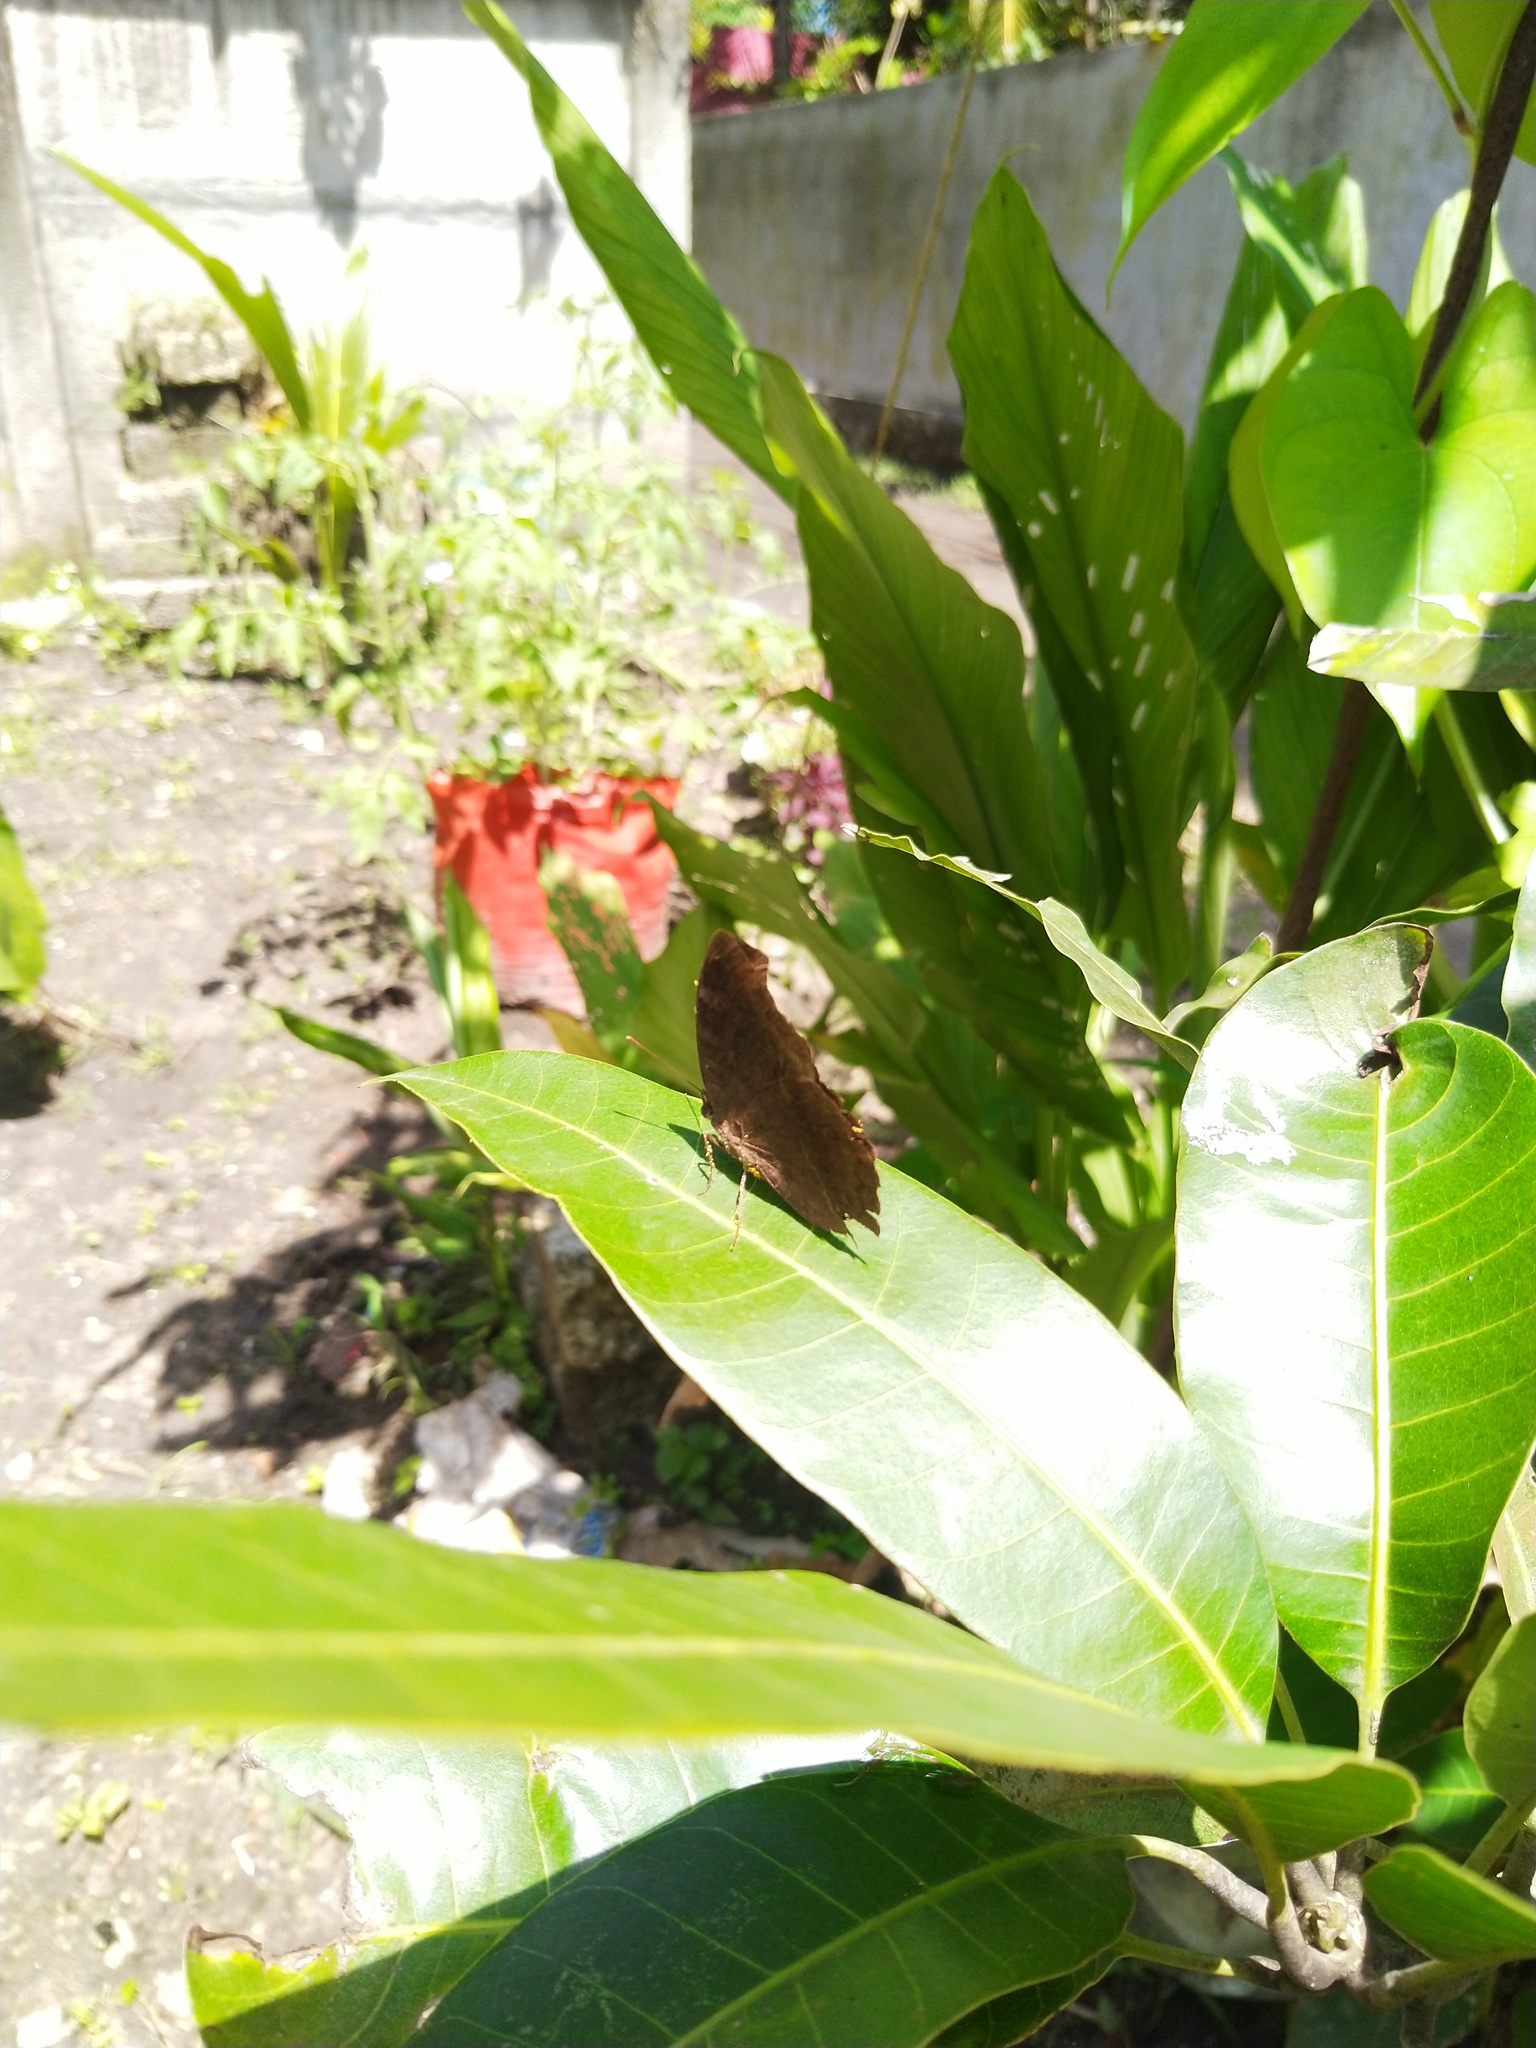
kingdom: Animalia
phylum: Arthropoda
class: Insecta
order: Lepidoptera
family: Nymphalidae
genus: Junonia
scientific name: Junonia iphita
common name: Chocolate pansy
